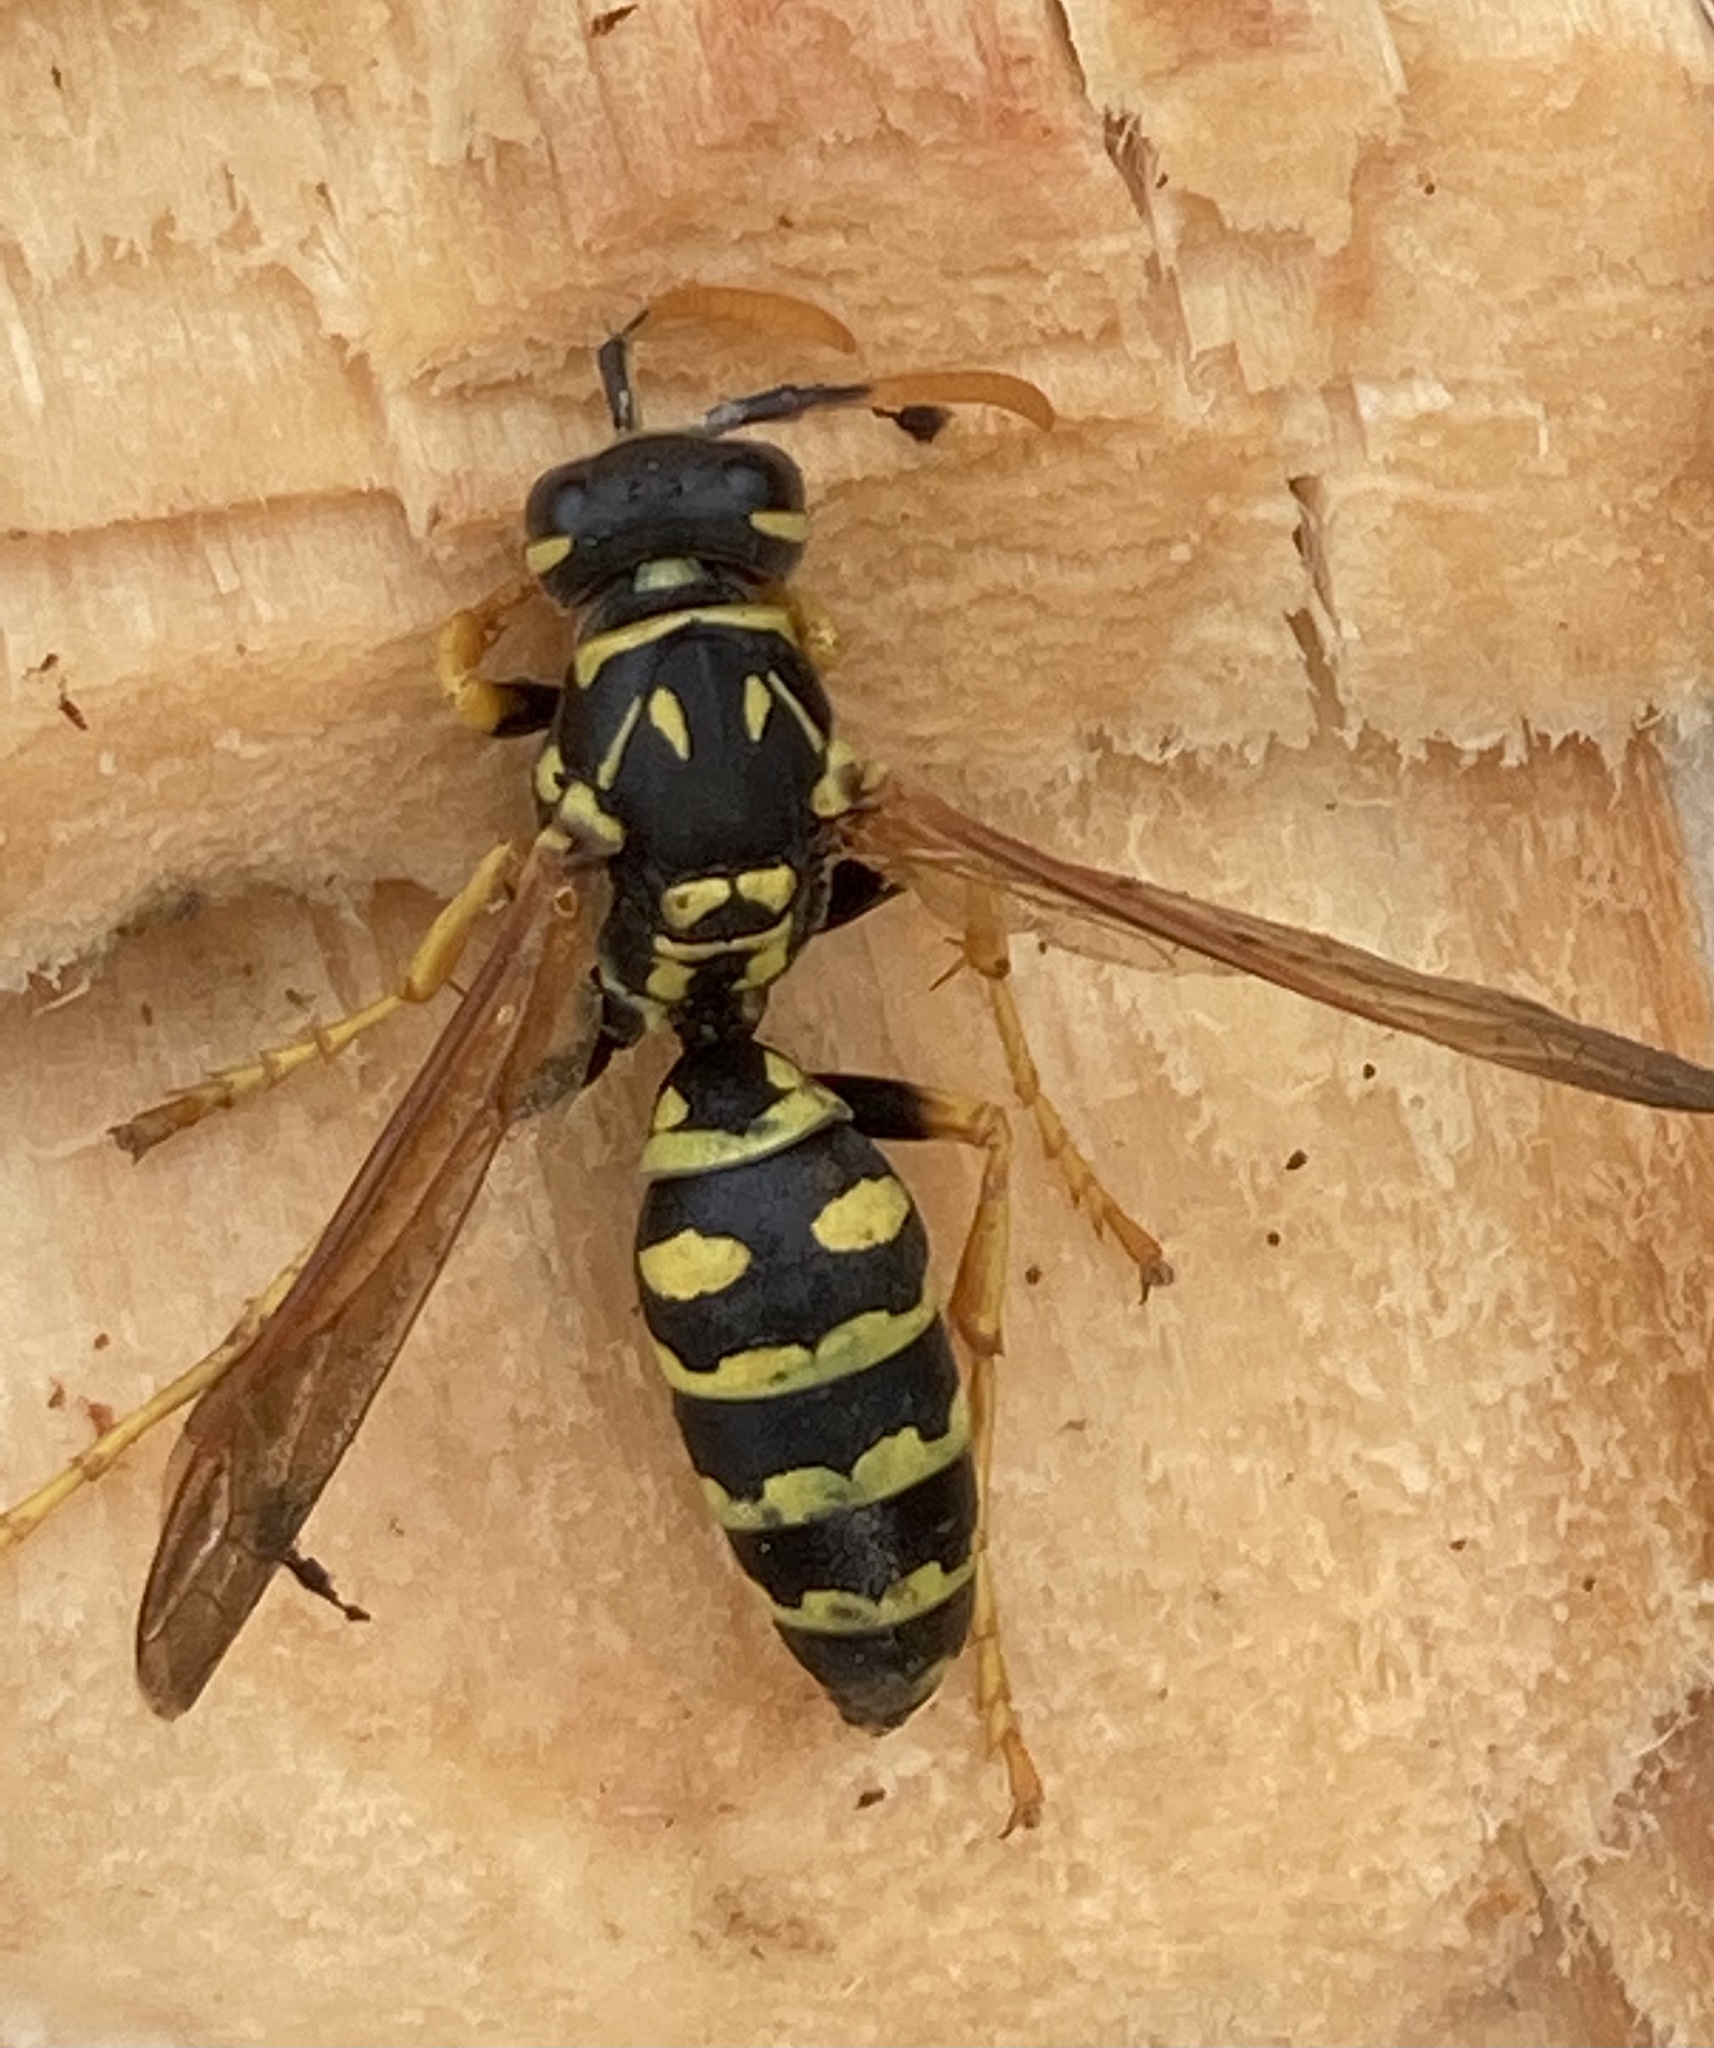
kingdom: Animalia
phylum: Arthropoda
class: Insecta
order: Hymenoptera
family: Eumenidae
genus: Polistes
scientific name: Polistes dominula
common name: Paper wasp
